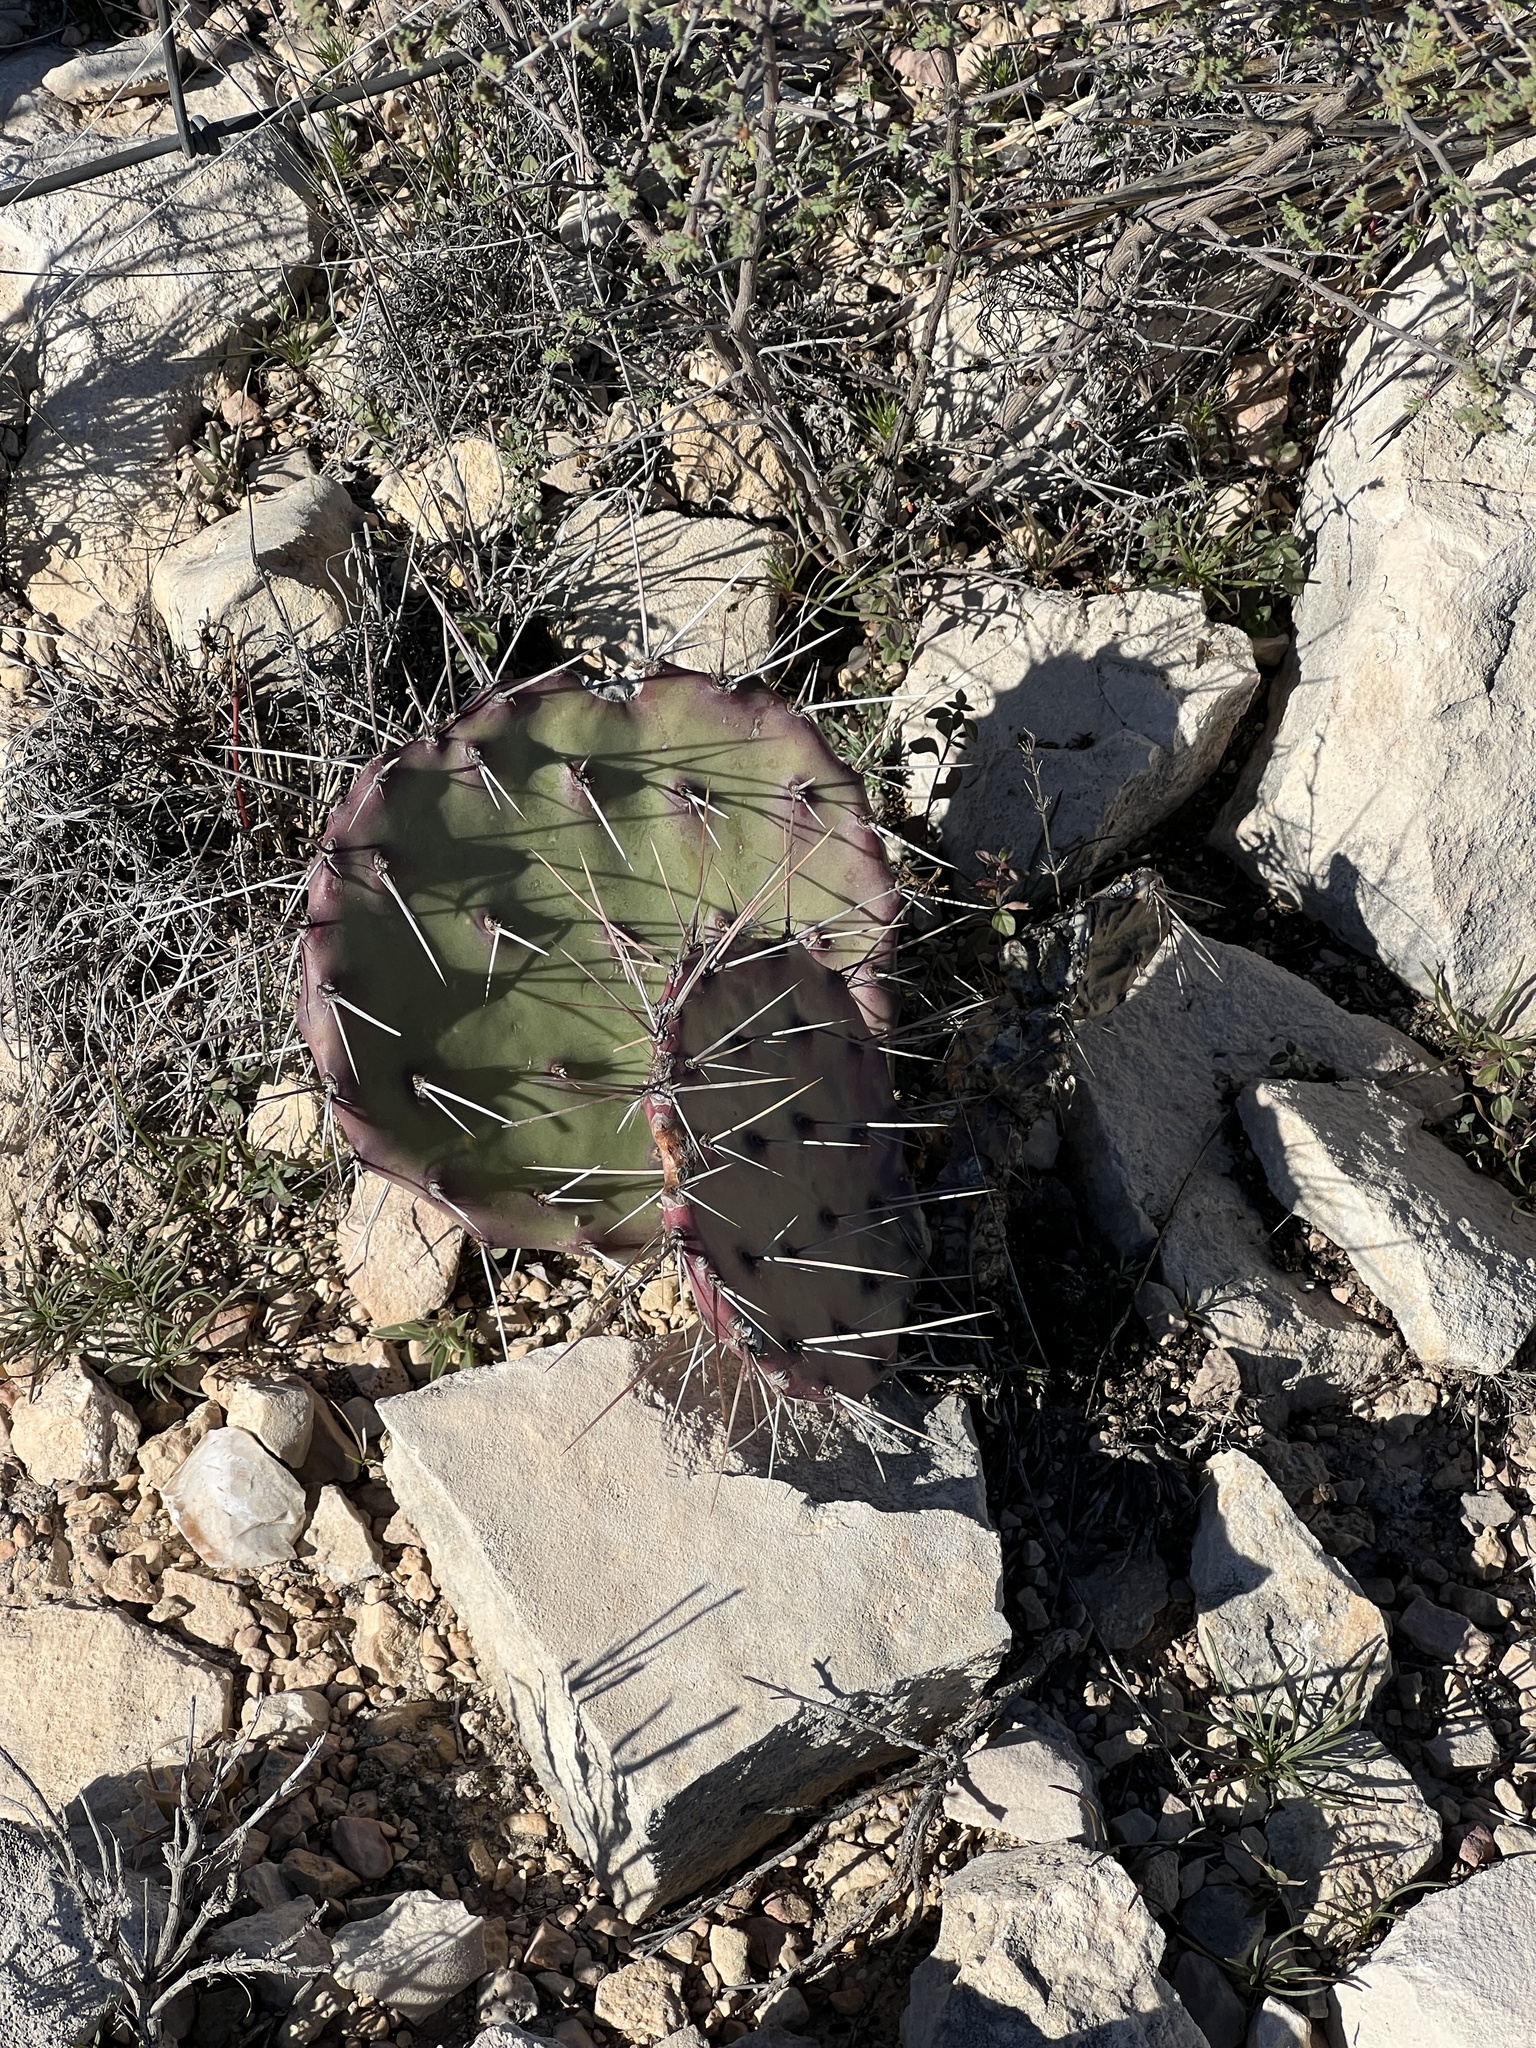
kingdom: Plantae
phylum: Tracheophyta
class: Magnoliopsida
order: Caryophyllales
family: Cactaceae
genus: Opuntia
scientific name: Opuntia phaeacantha
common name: New mexico prickly-pear
